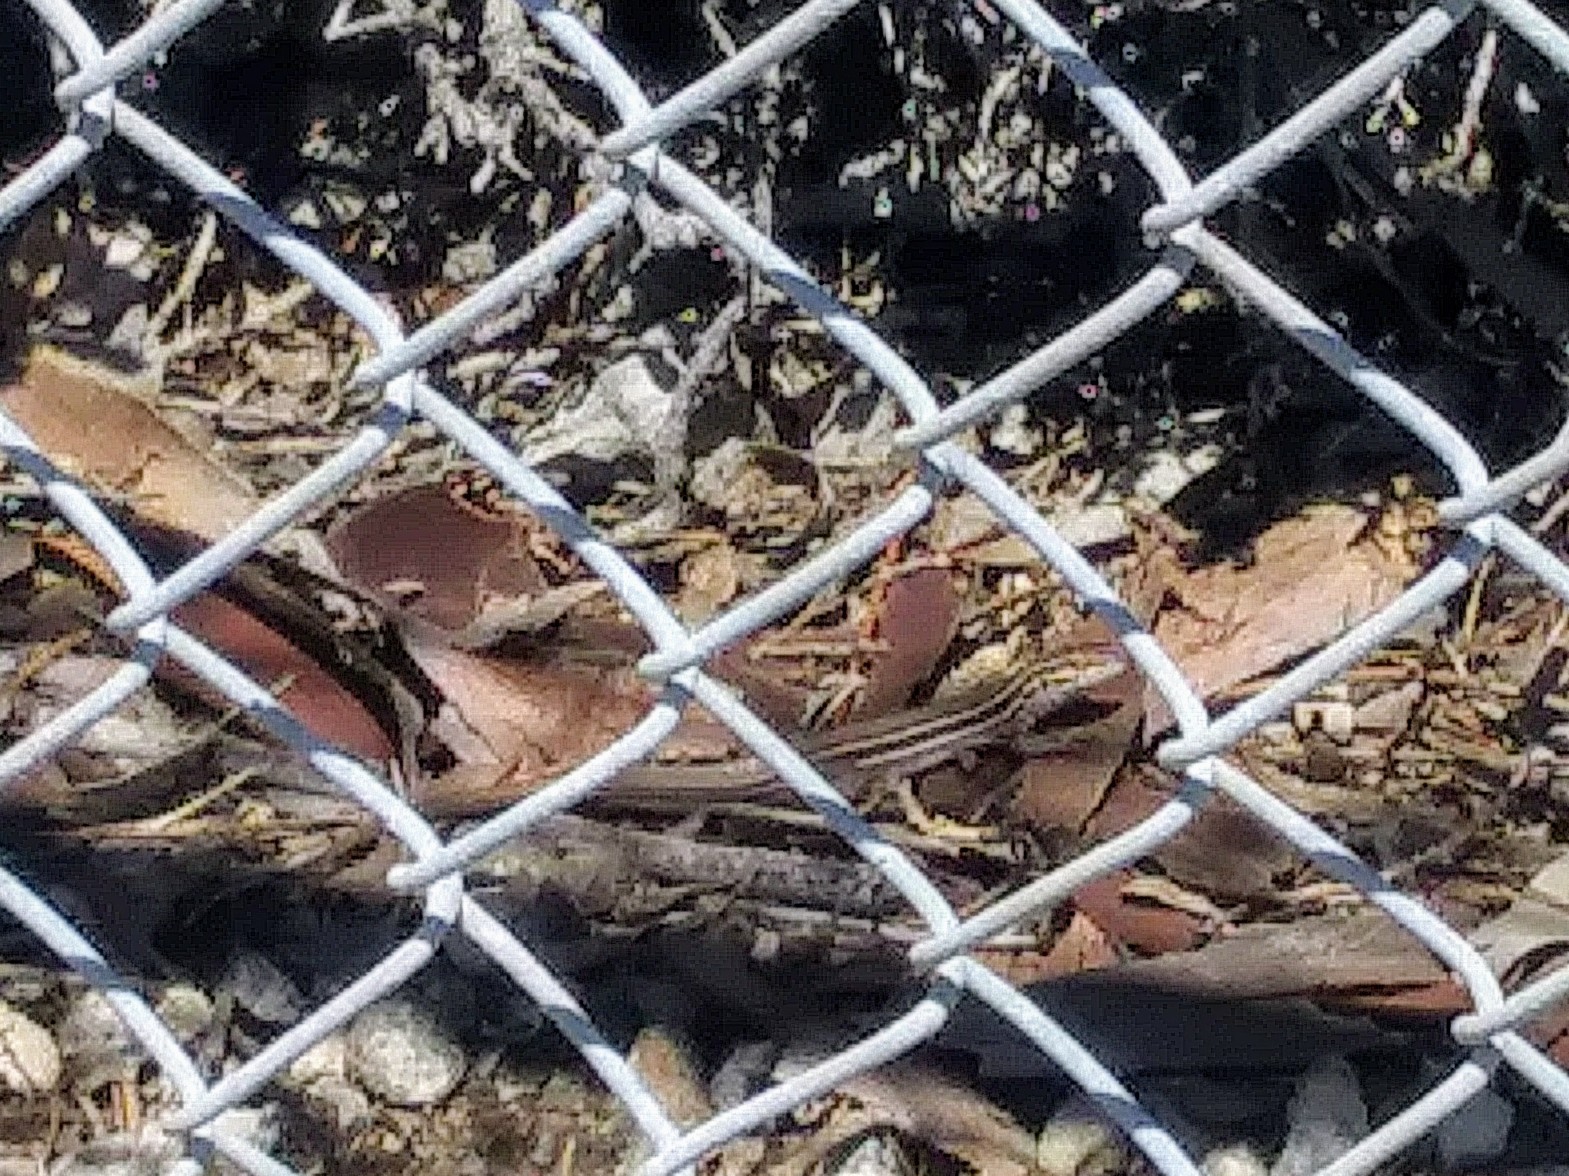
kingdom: Animalia
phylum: Chordata
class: Squamata
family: Teiidae
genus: Aspidoscelis
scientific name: Aspidoscelis sonorae
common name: Sonoran spotted whiptail
